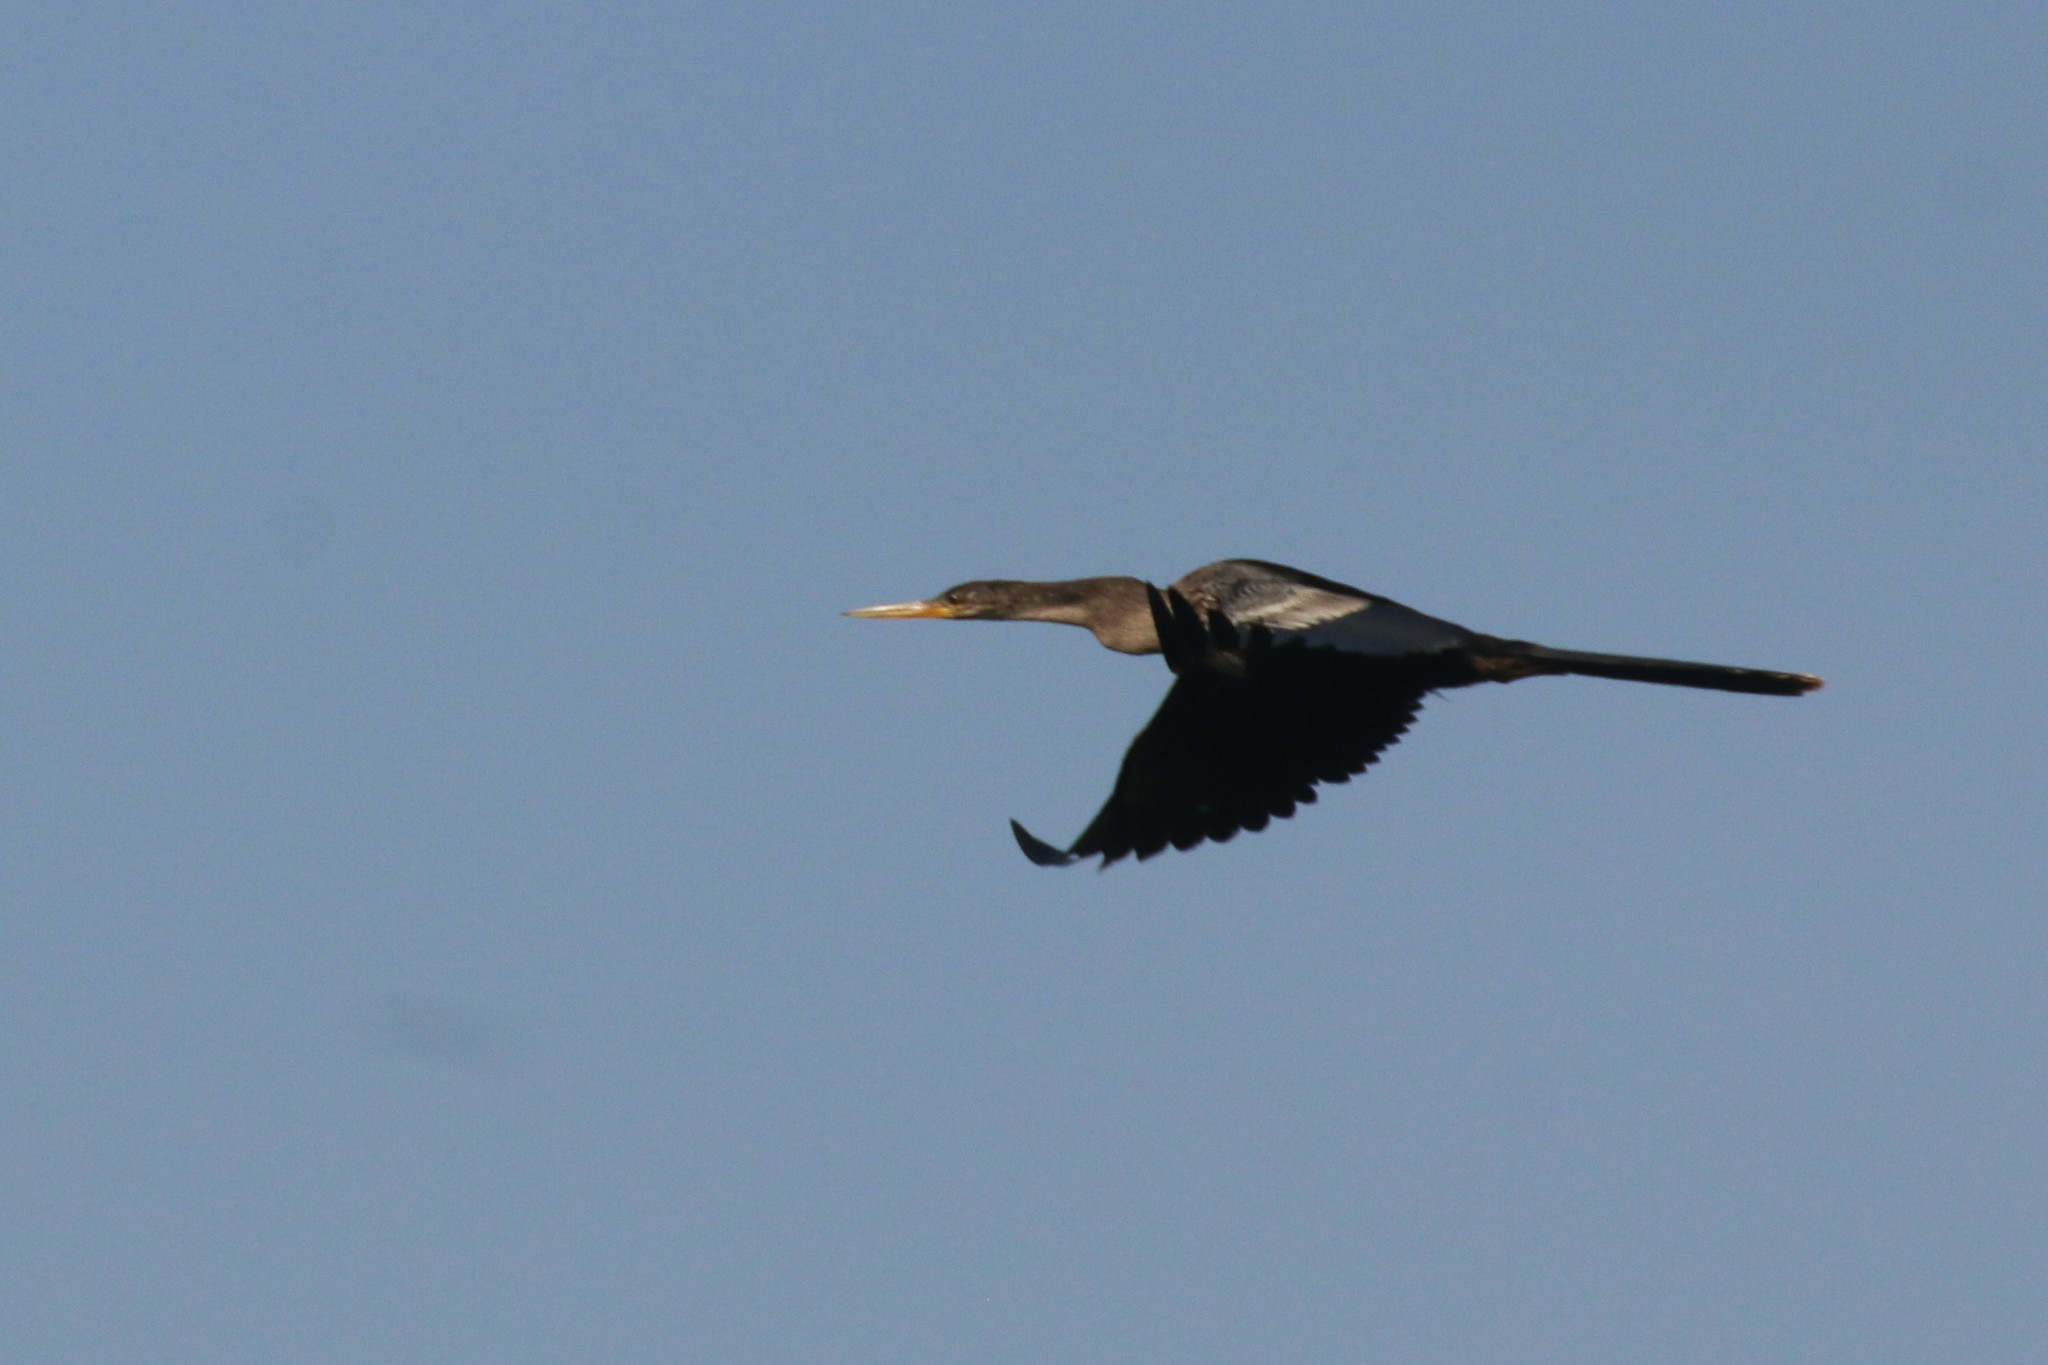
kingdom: Animalia
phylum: Chordata
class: Aves
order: Suliformes
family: Anhingidae
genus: Anhinga
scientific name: Anhinga anhinga
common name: Anhinga
